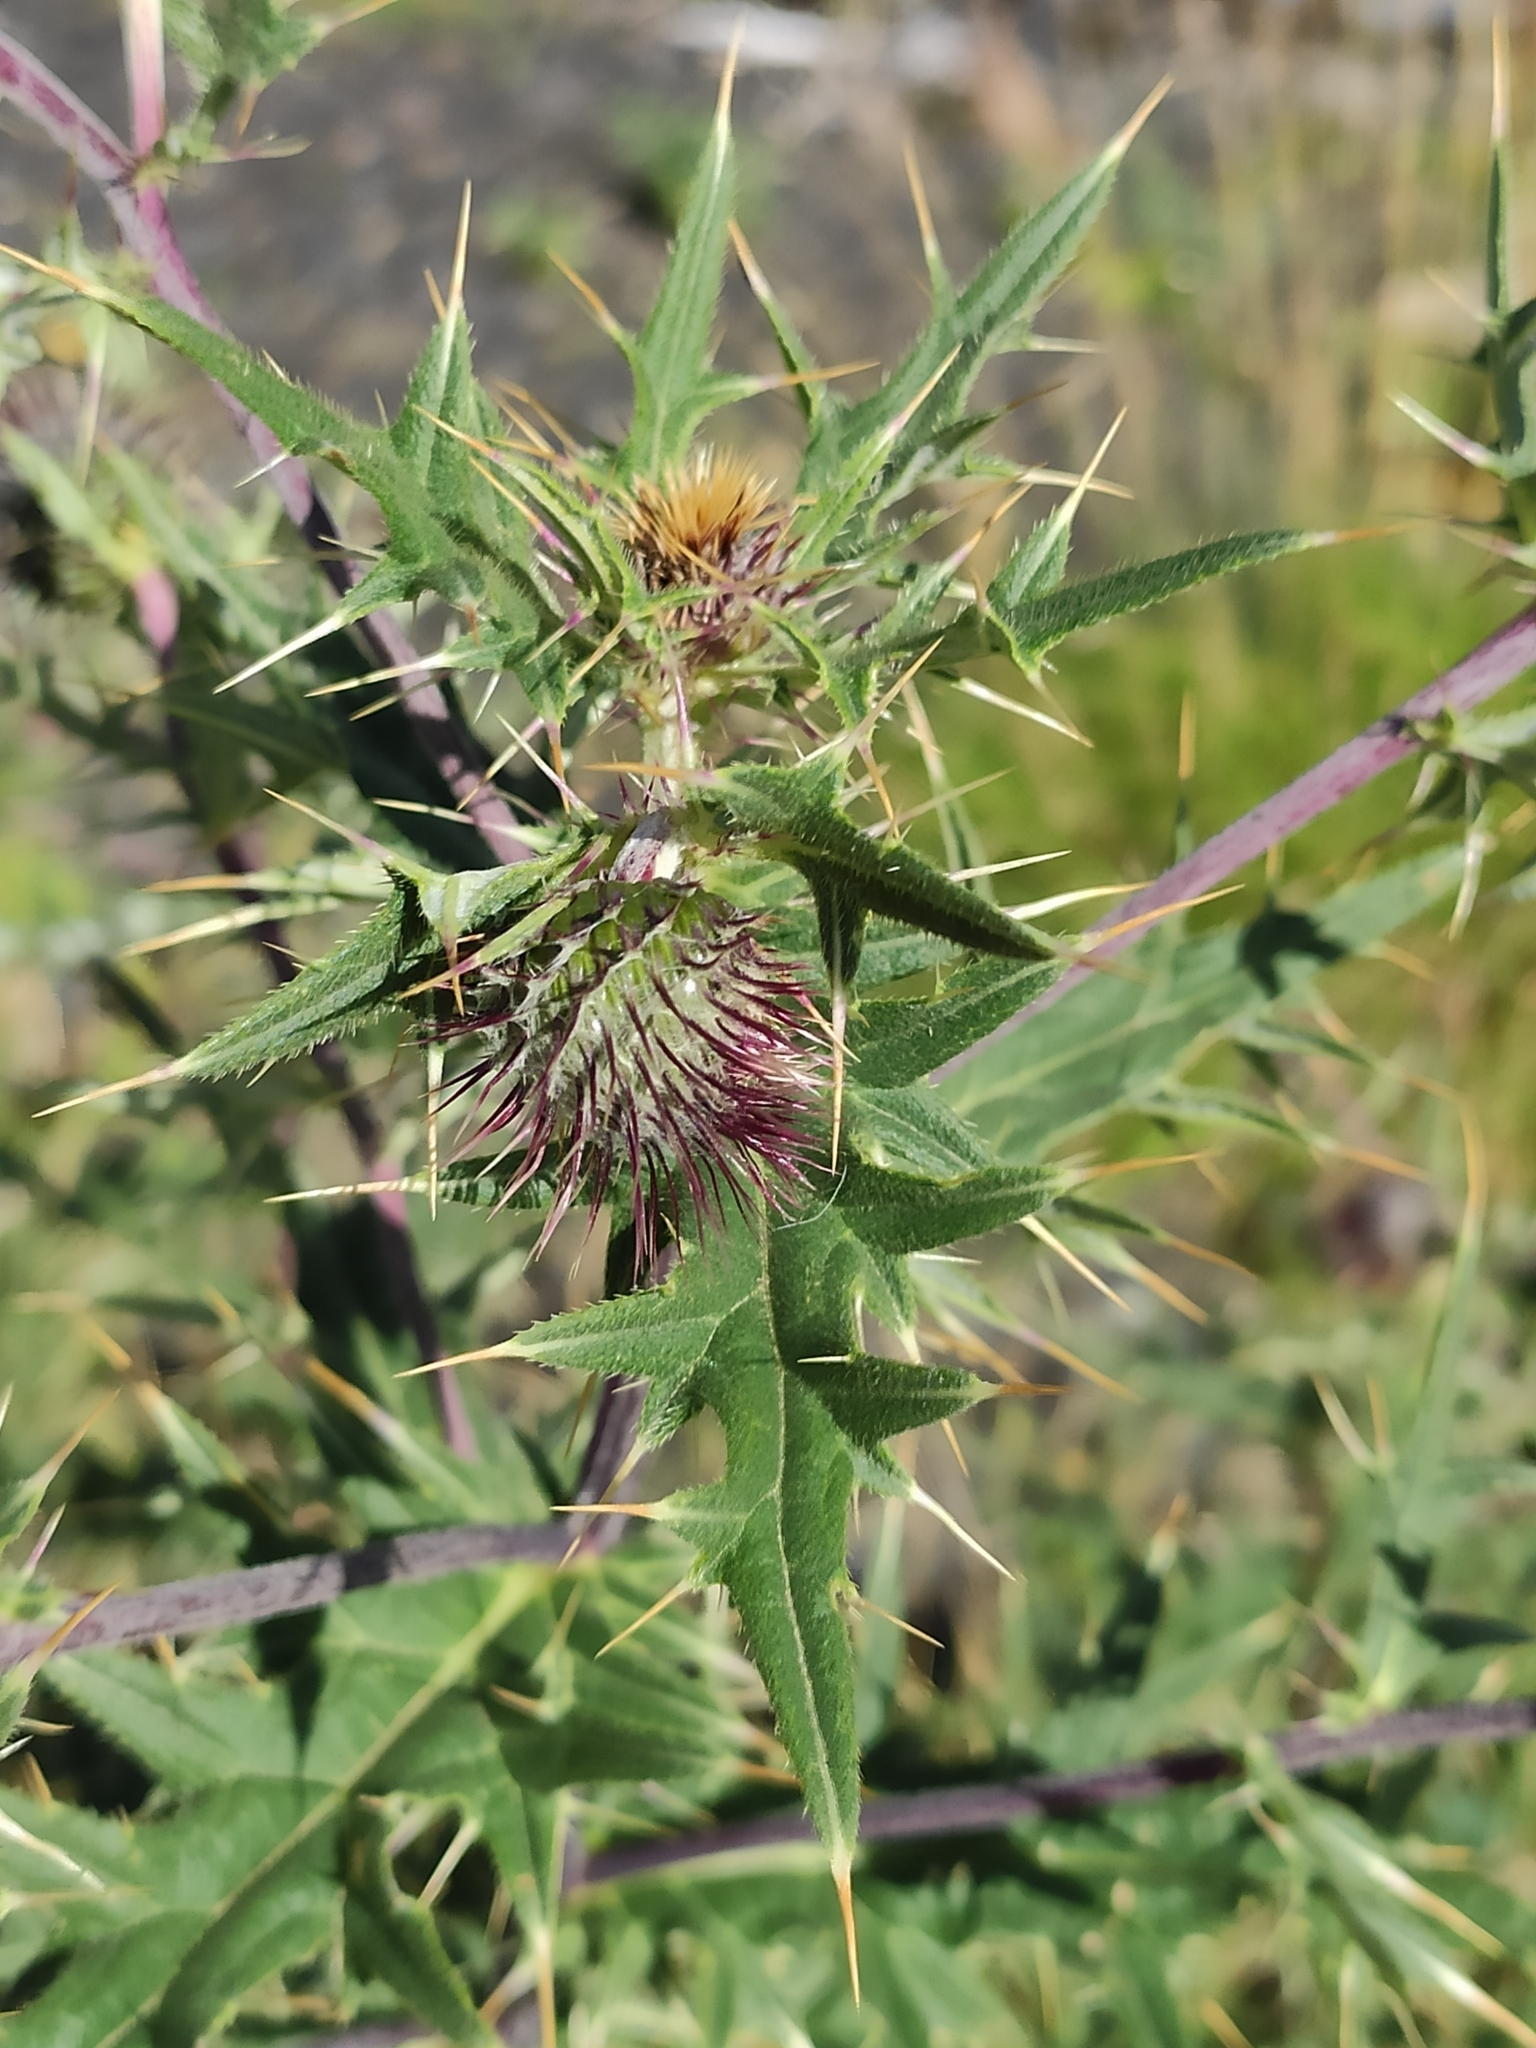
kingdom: Plantae
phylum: Tracheophyta
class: Magnoliopsida
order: Asterales
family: Asteraceae
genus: Lophiolepis
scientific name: Lophiolepis gagnidzei
